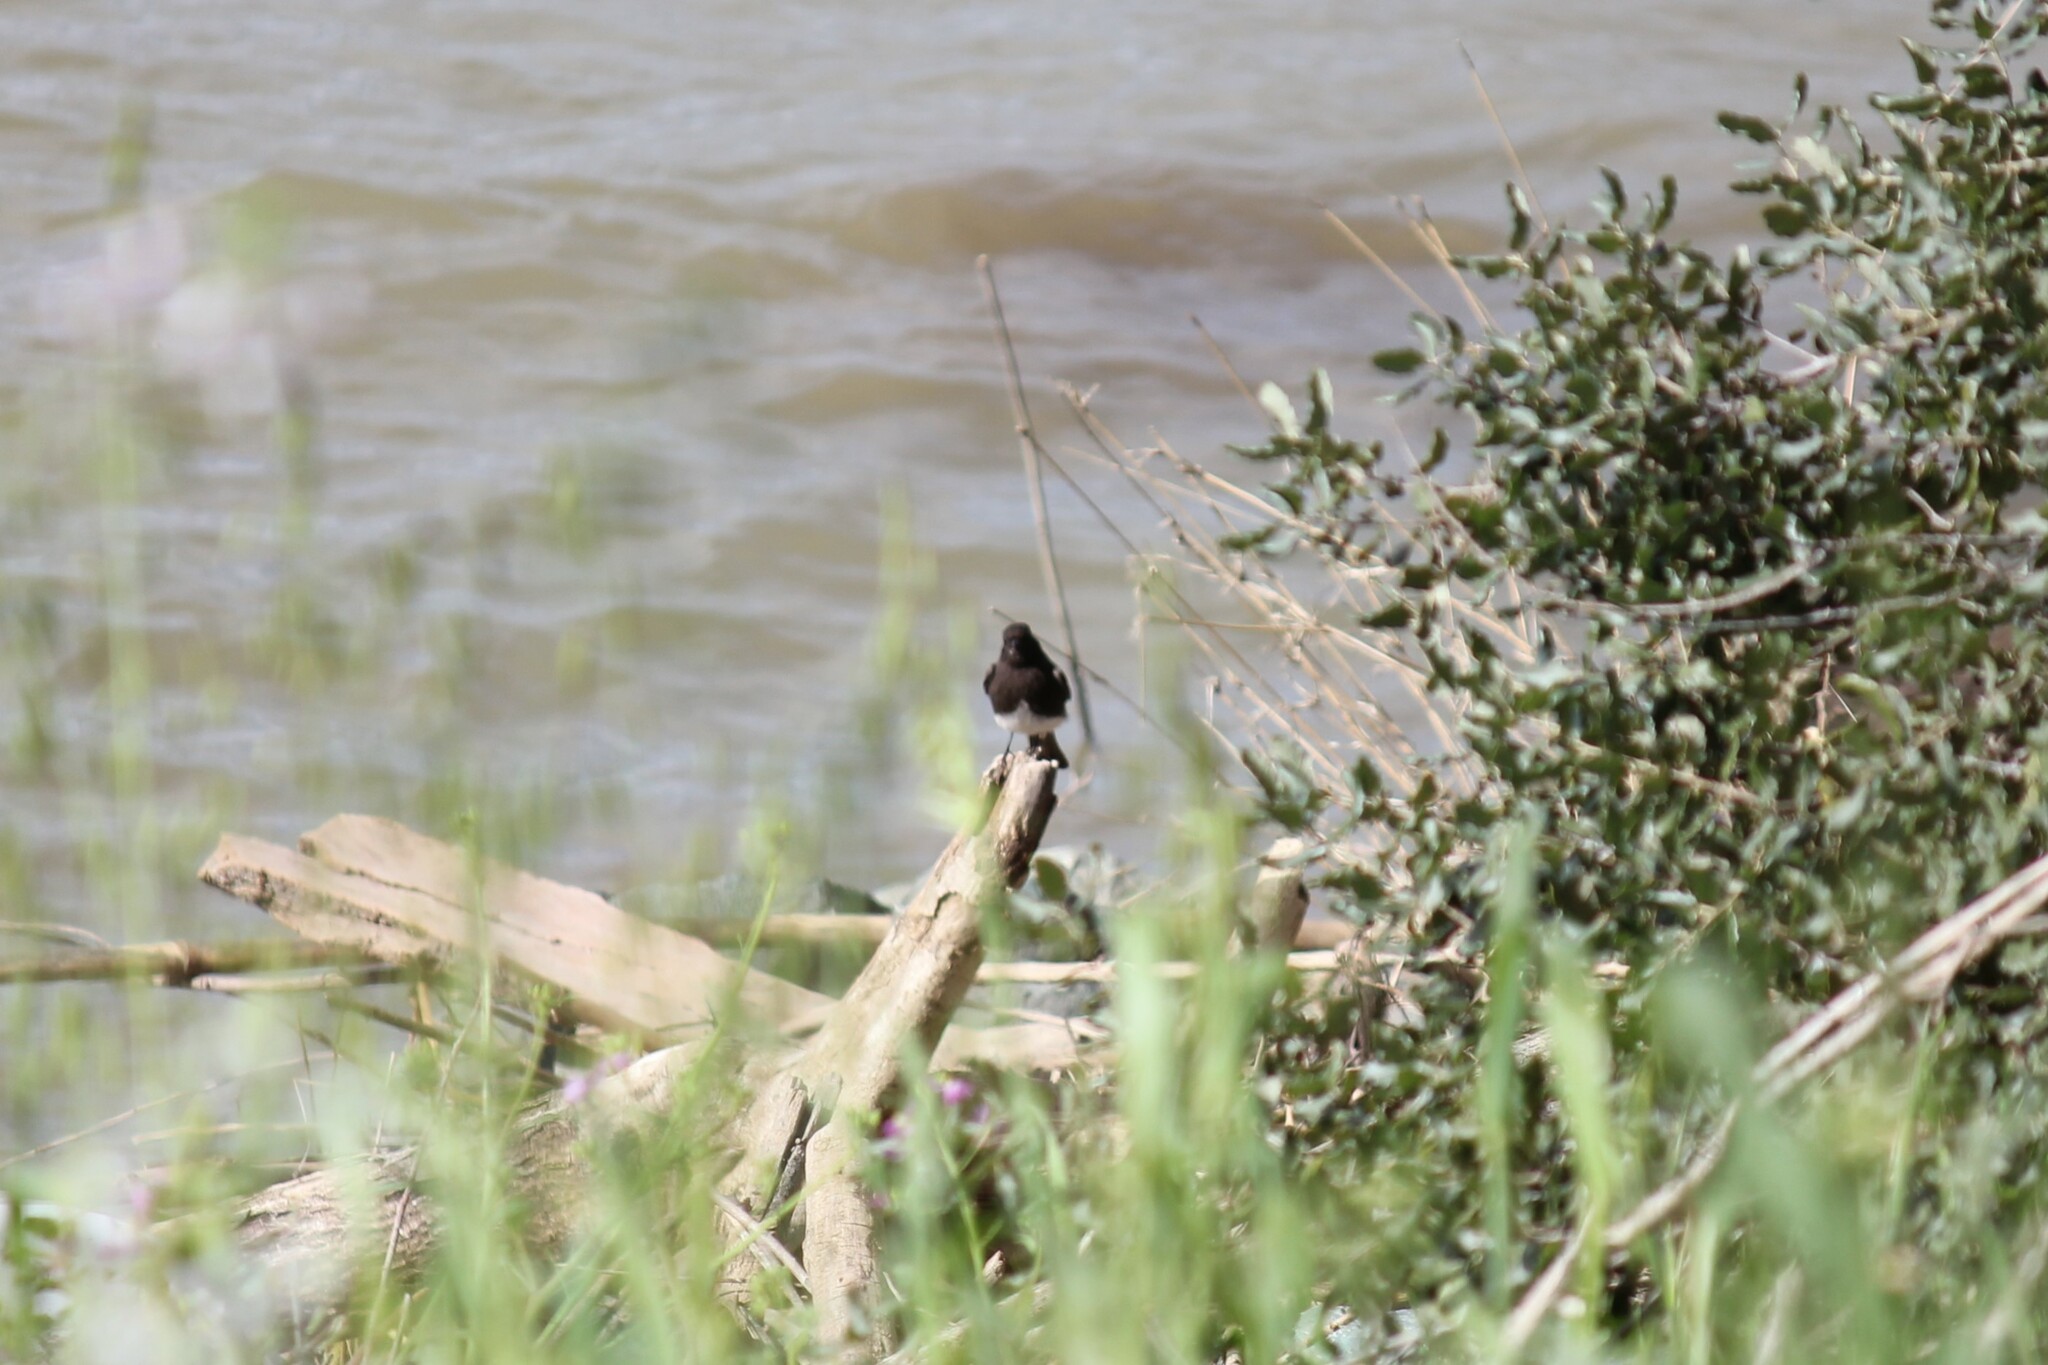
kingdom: Animalia
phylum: Chordata
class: Aves
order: Passeriformes
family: Tyrannidae
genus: Sayornis
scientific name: Sayornis nigricans
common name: Black phoebe
